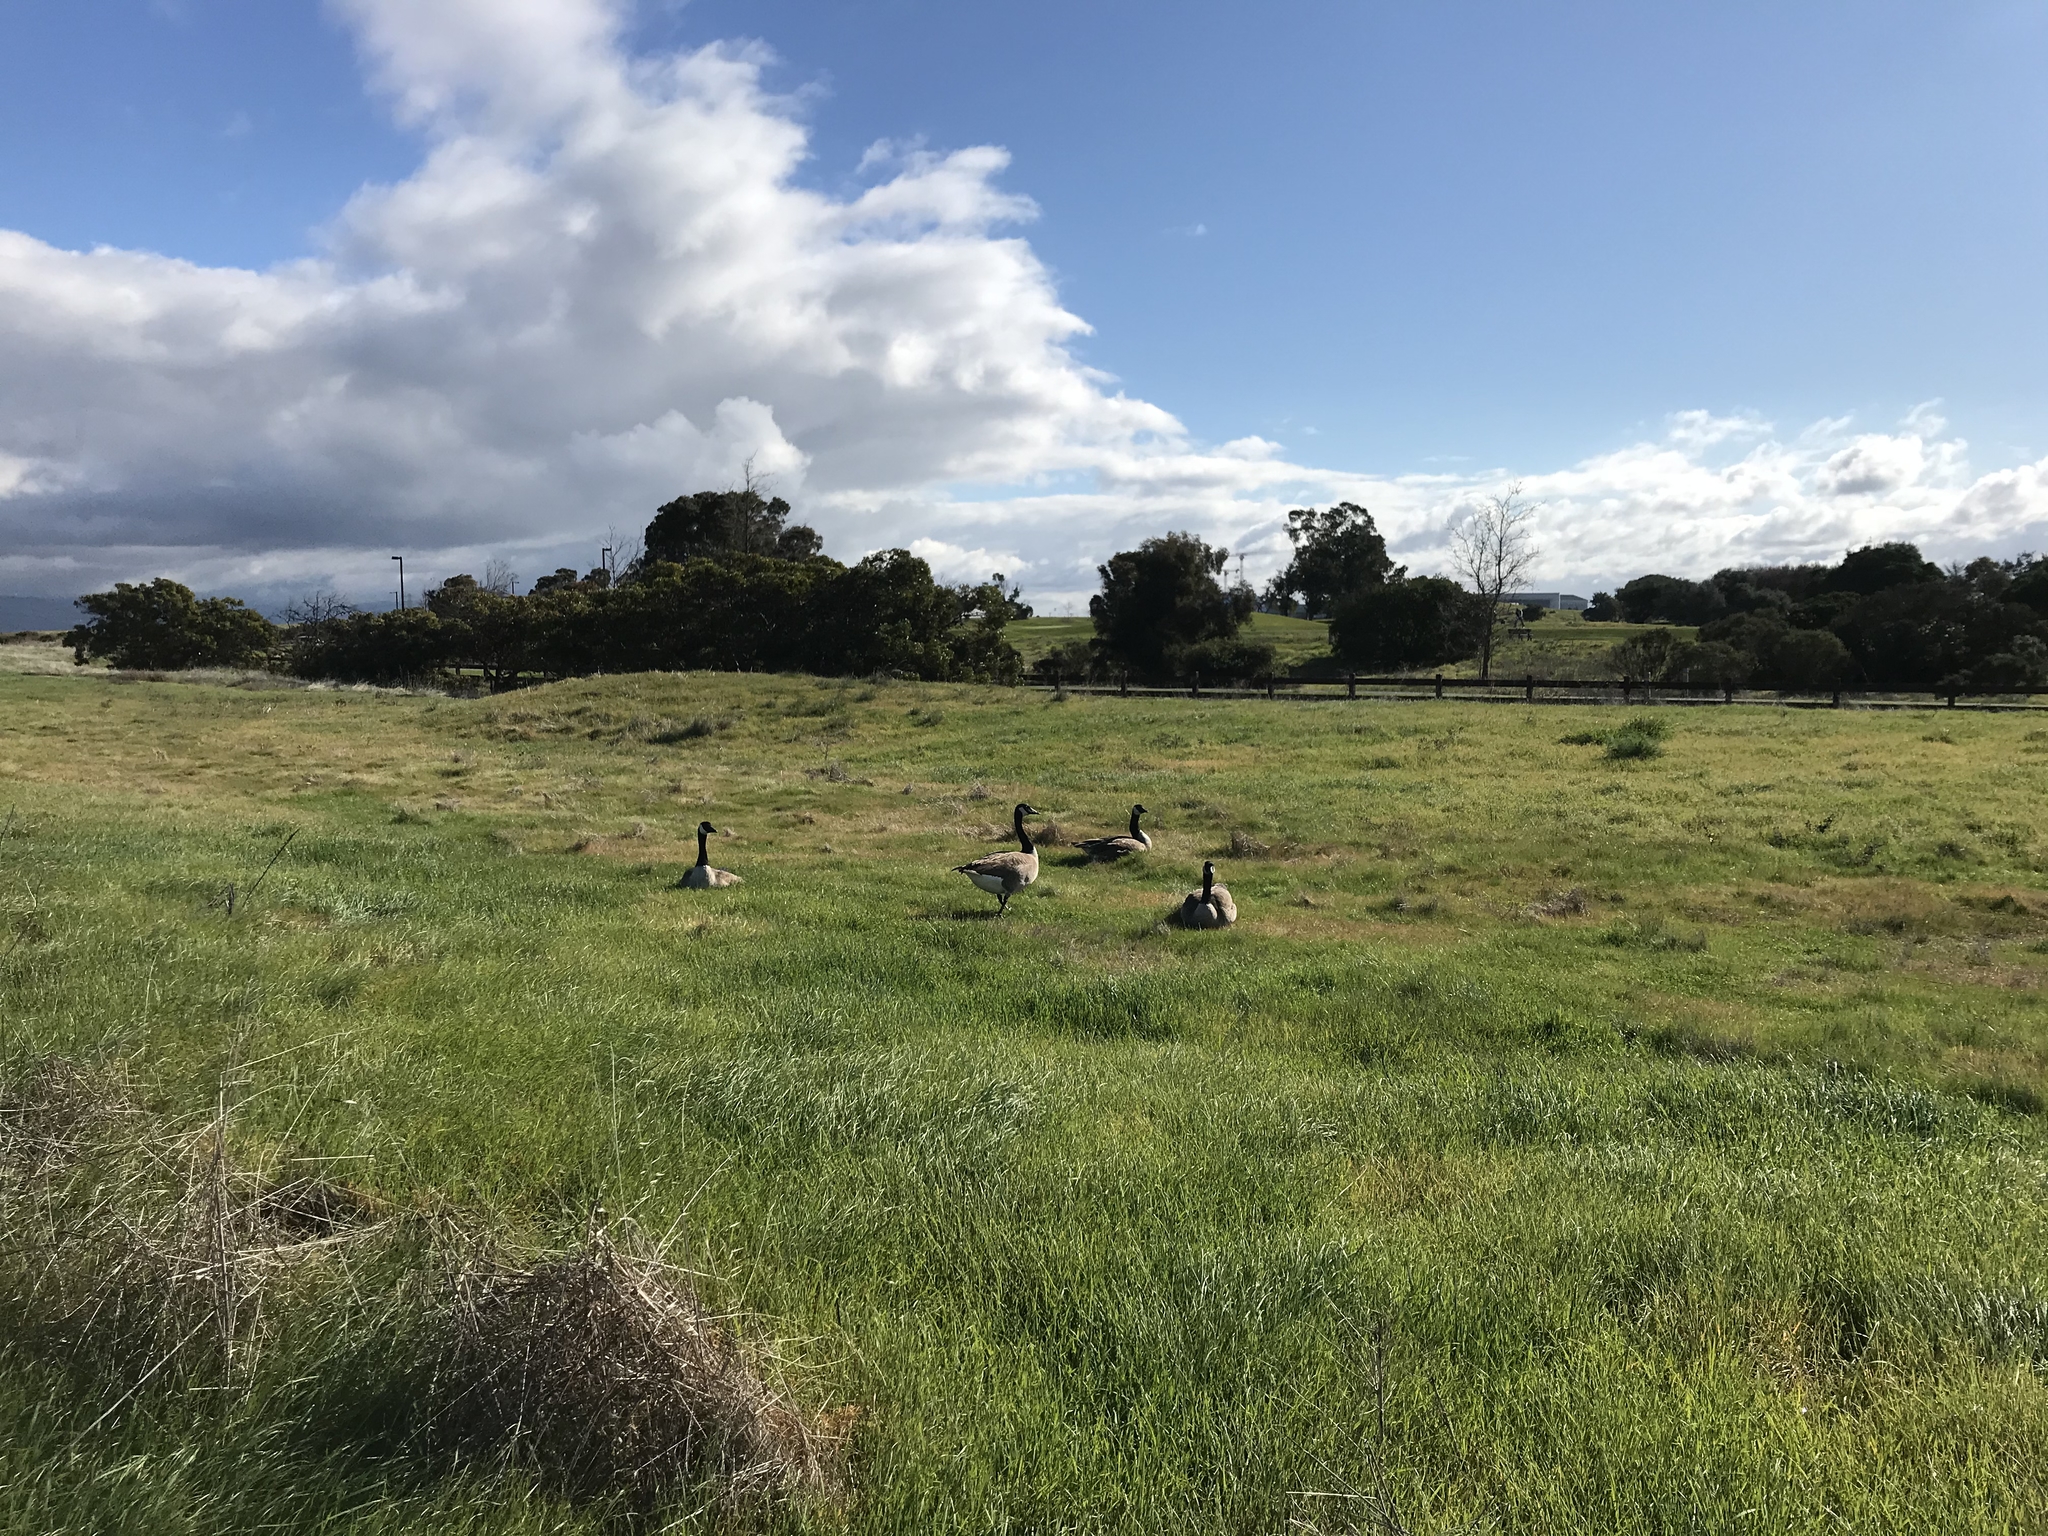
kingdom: Animalia
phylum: Chordata
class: Aves
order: Anseriformes
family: Anatidae
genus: Branta
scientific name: Branta canadensis
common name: Canada goose
